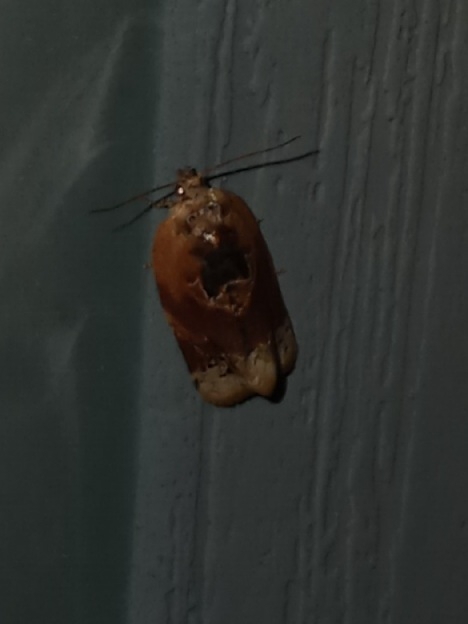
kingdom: Animalia
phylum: Arthropoda
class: Insecta
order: Lepidoptera
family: Tortricidae
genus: Argyrotaenia
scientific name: Argyrotaenia velutinana
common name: Red-banded leafroller moth
